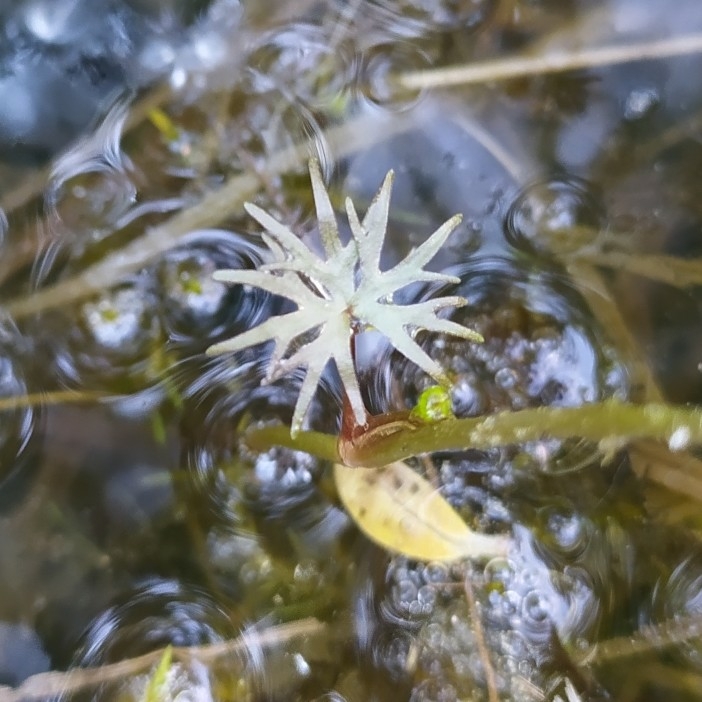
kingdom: Plantae
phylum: Tracheophyta
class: Magnoliopsida
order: Ranunculales
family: Ranunculaceae
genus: Ranunculus
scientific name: Ranunculus gmelinii
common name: Gmelin's buttercup
